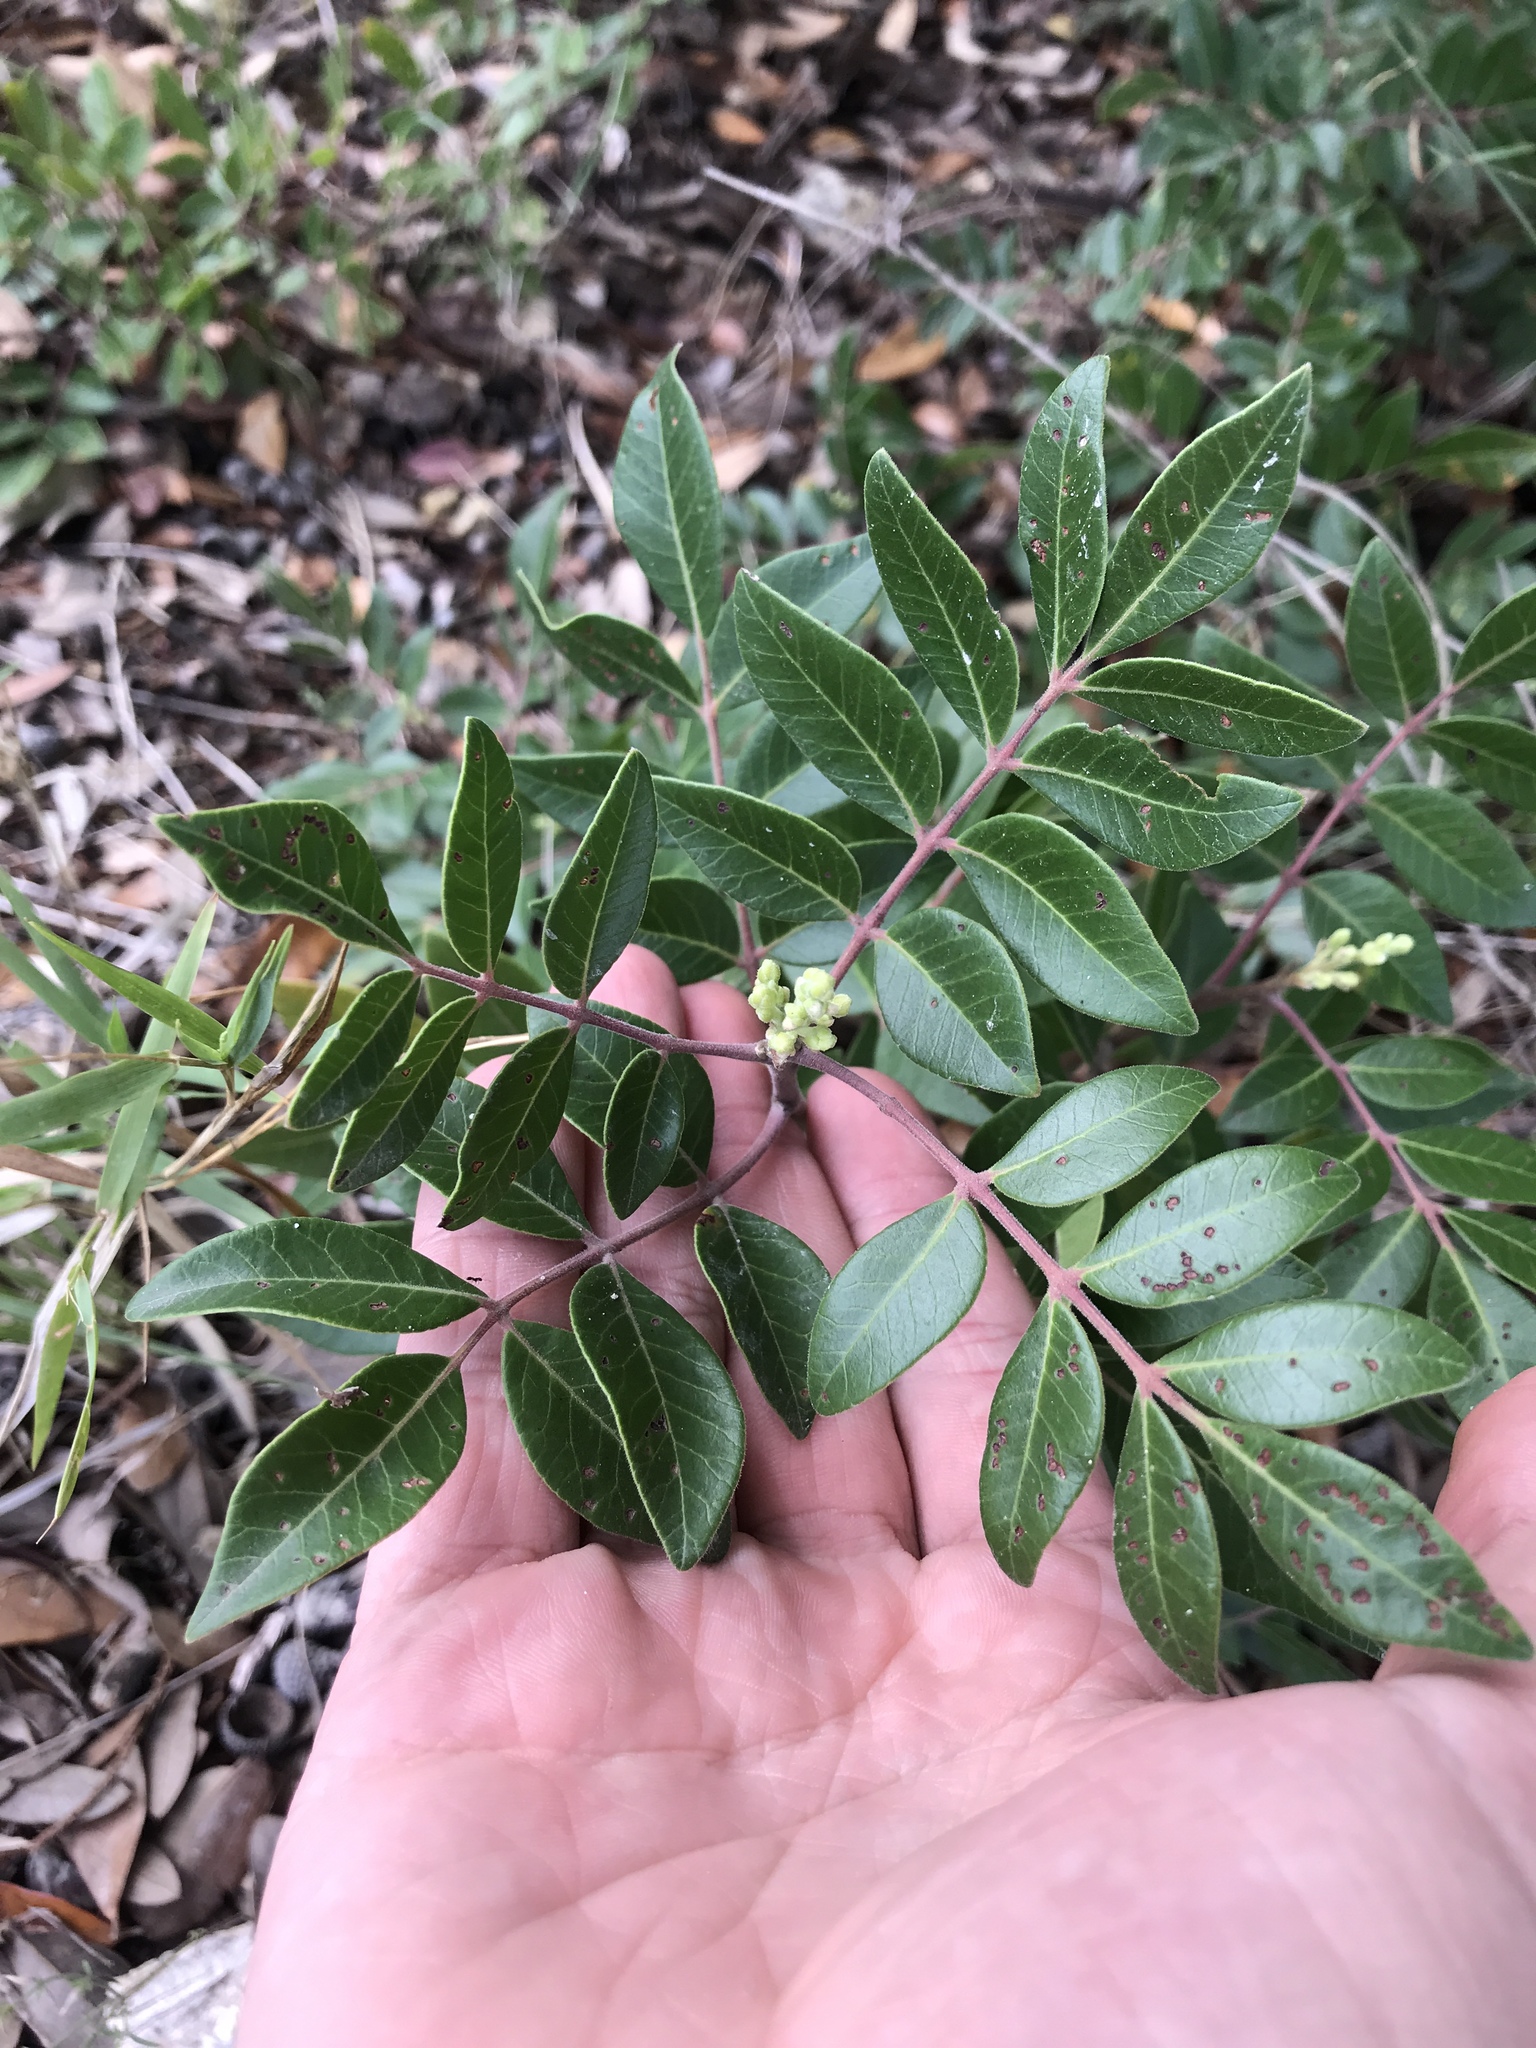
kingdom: Plantae
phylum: Tracheophyta
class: Magnoliopsida
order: Sapindales
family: Anacardiaceae
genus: Rhus
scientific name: Rhus virens
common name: Evergreen sumac
